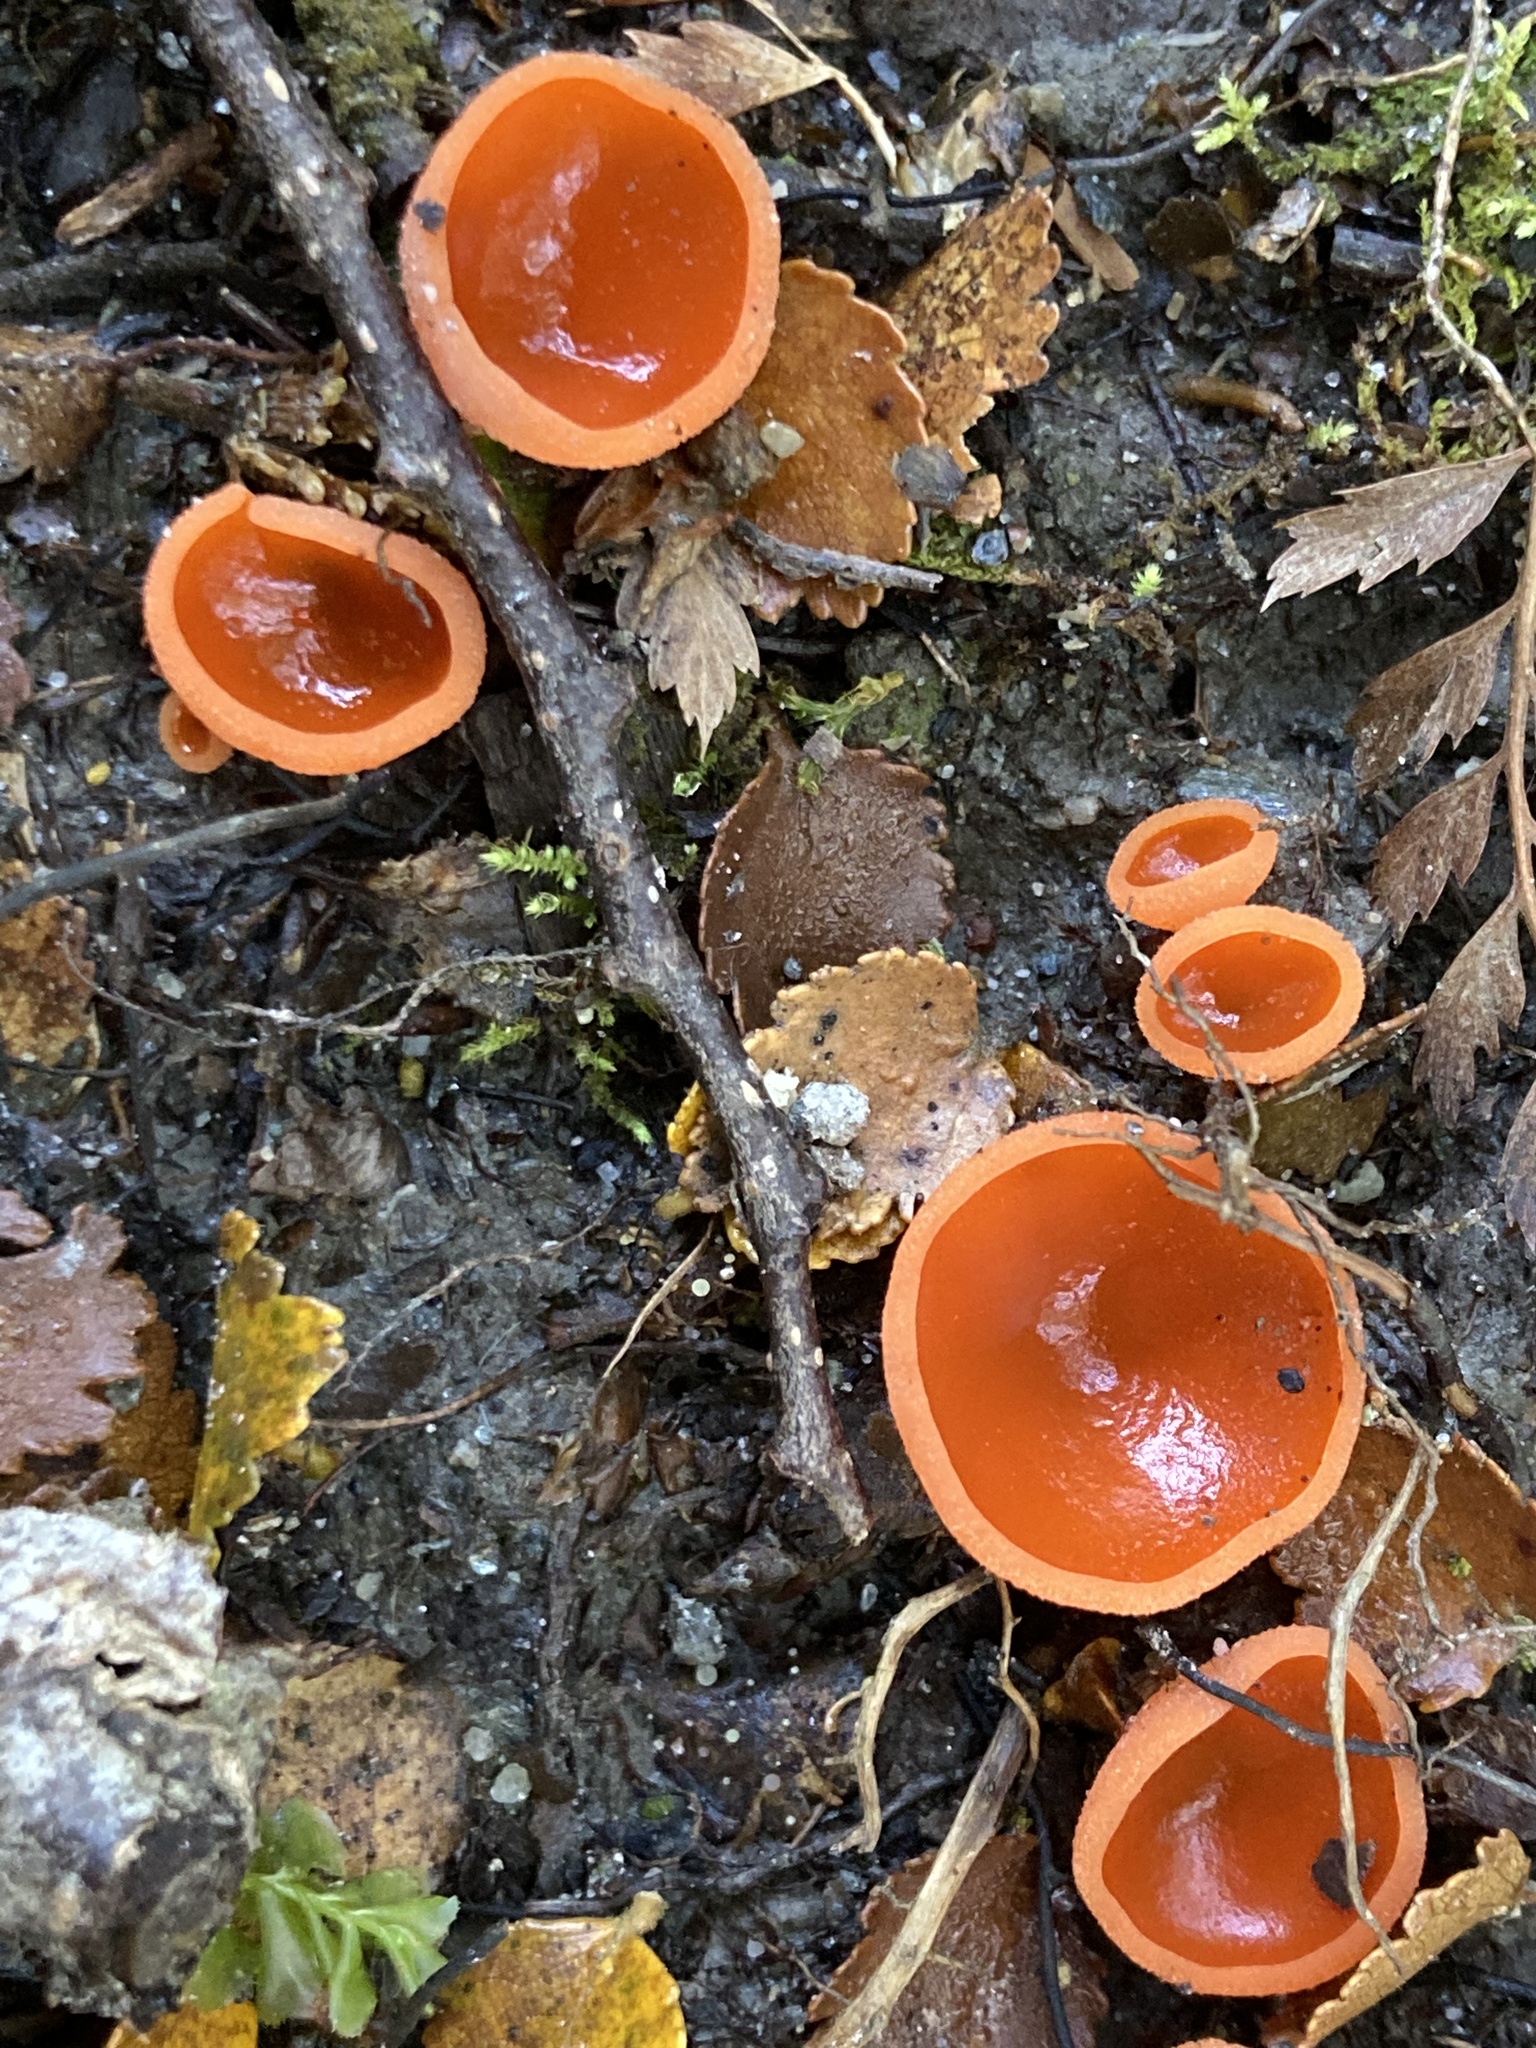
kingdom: Fungi
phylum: Ascomycota
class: Pezizomycetes
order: Pezizales
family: Pyronemataceae
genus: Aleuria
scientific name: Aleuria aurantia
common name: Orange peel fungus
